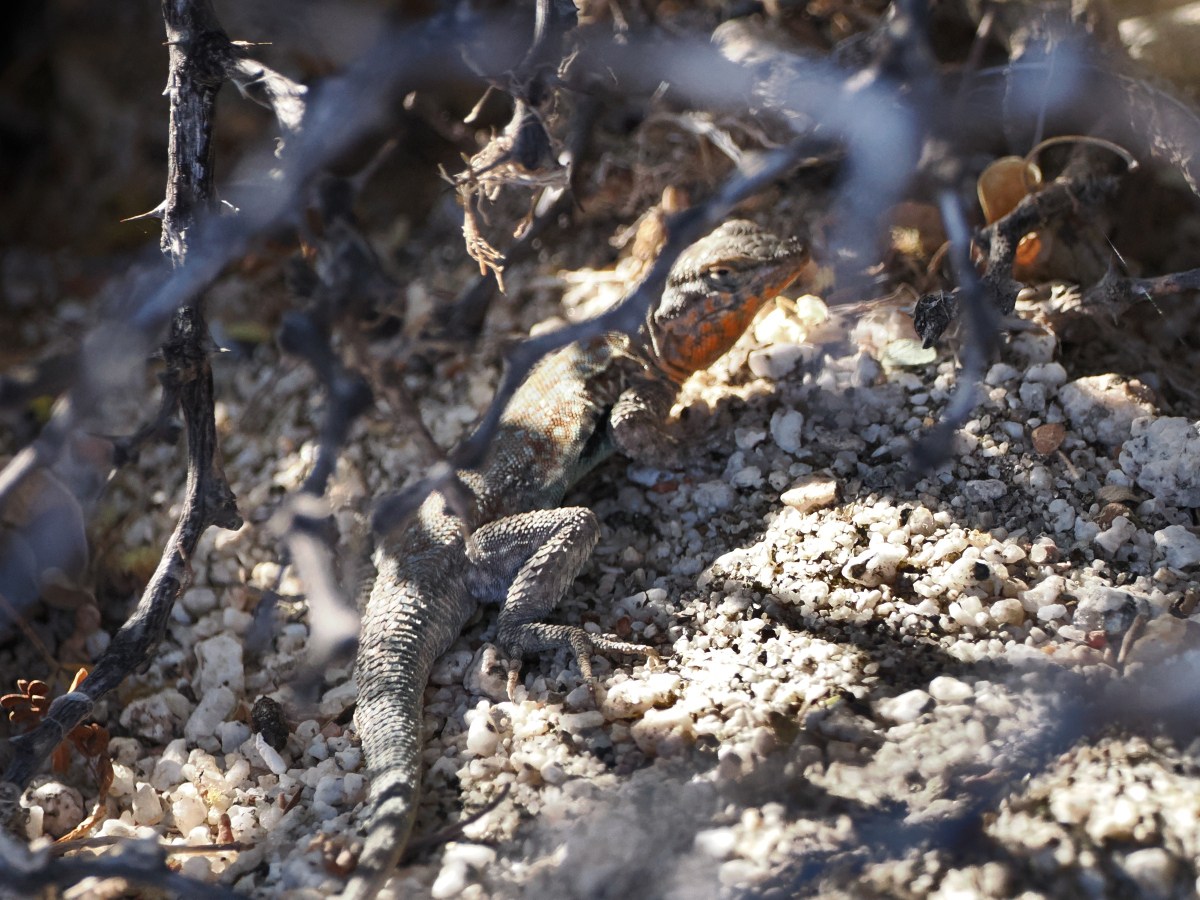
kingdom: Animalia
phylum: Chordata
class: Squamata
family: Phrynosomatidae
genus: Uta
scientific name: Uta stansburiana
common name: Side-blotched lizard
